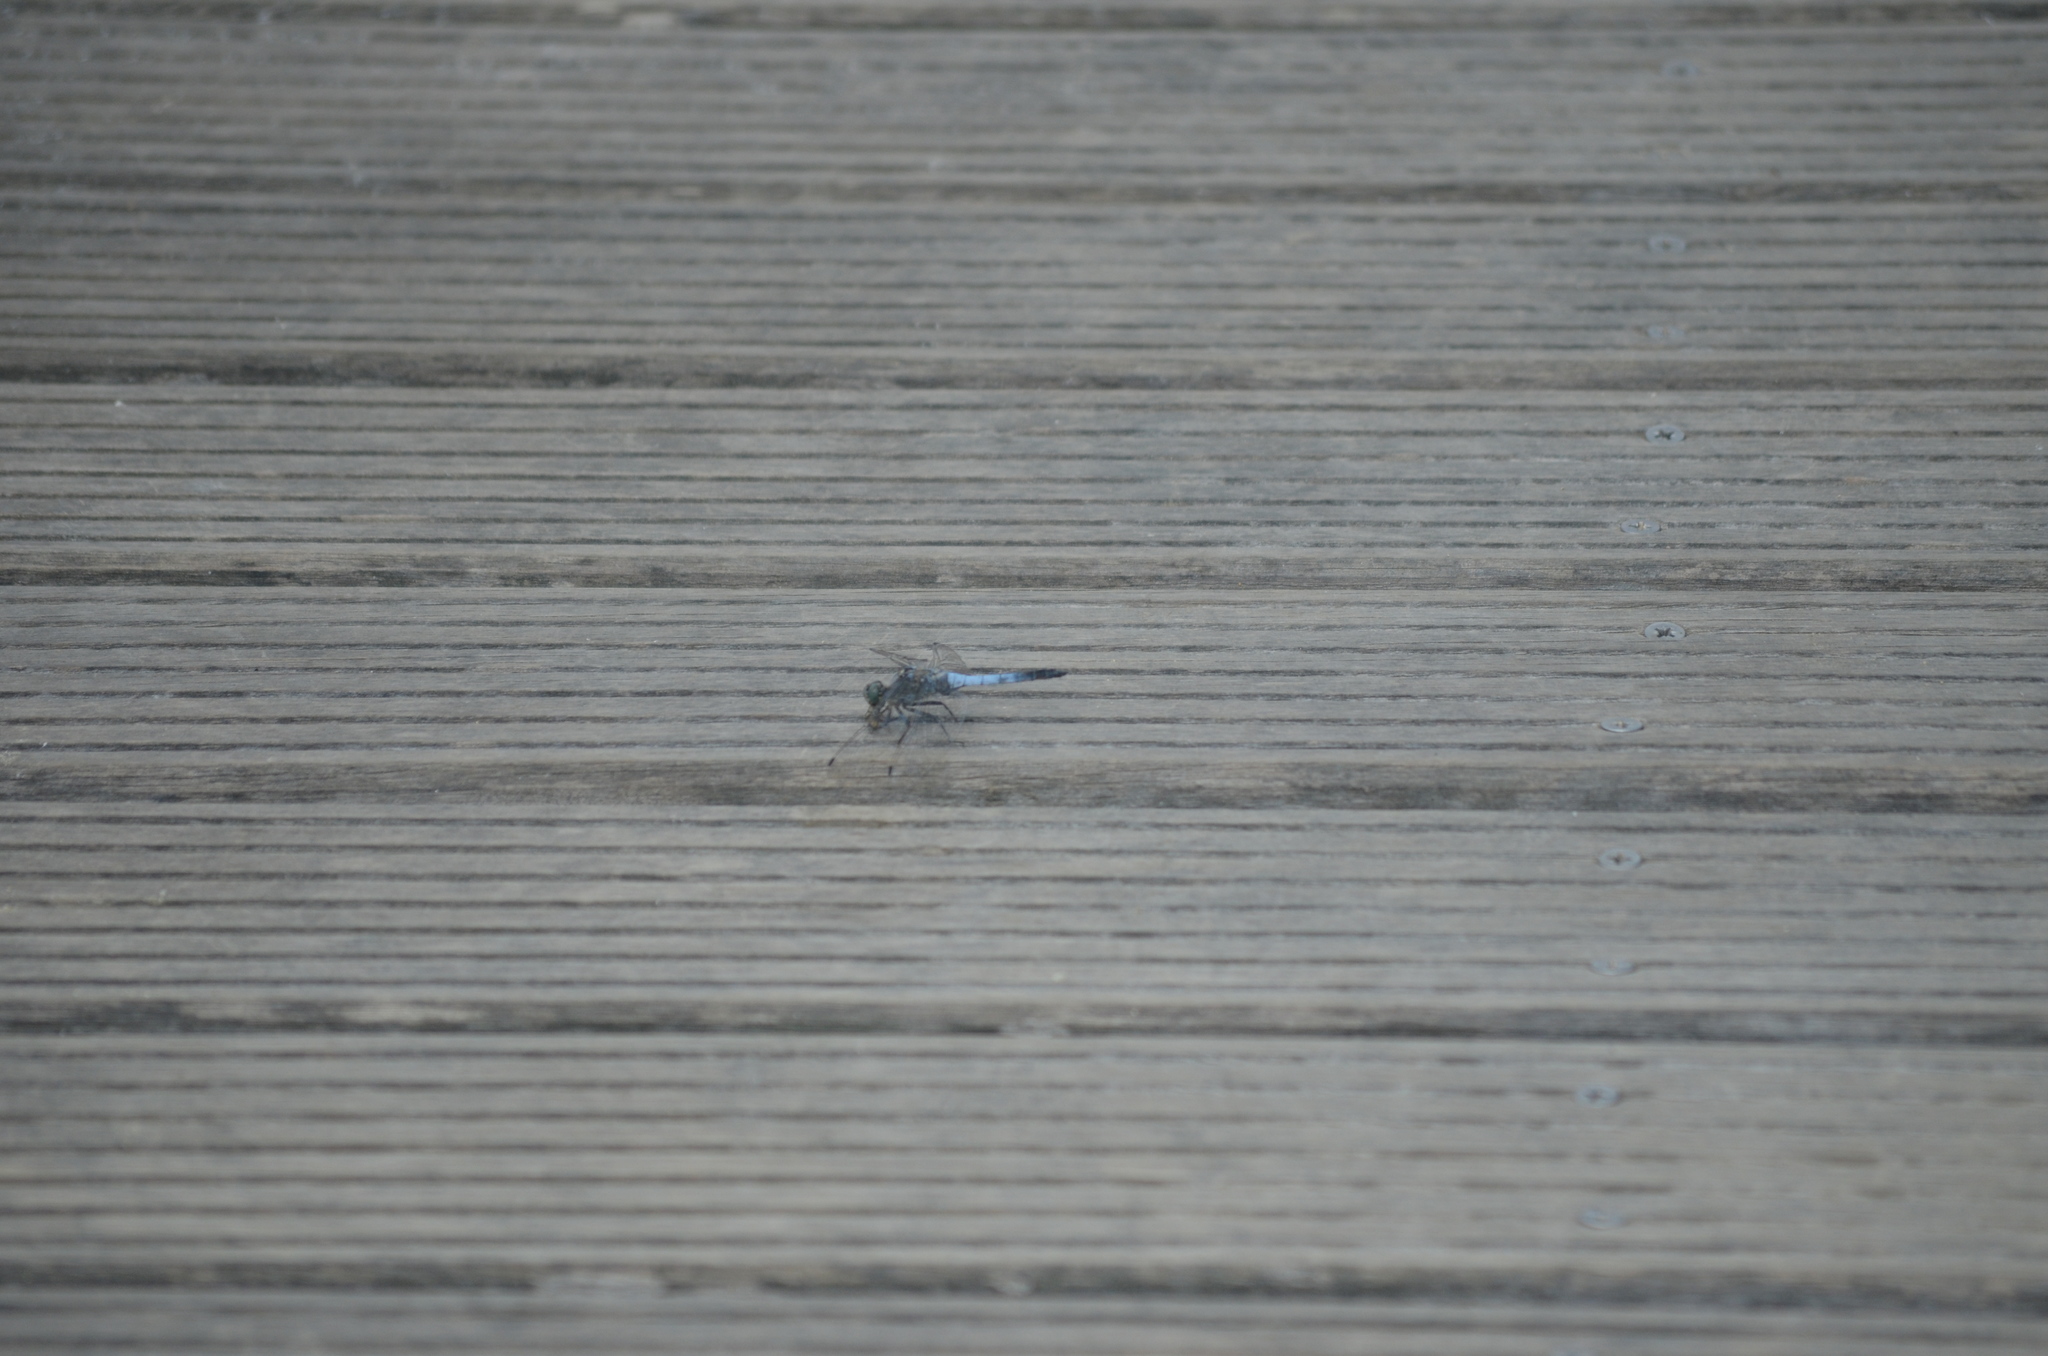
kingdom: Animalia
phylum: Arthropoda
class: Insecta
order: Odonata
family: Libellulidae
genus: Orthetrum
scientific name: Orthetrum cancellatum
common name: Black-tailed skimmer
